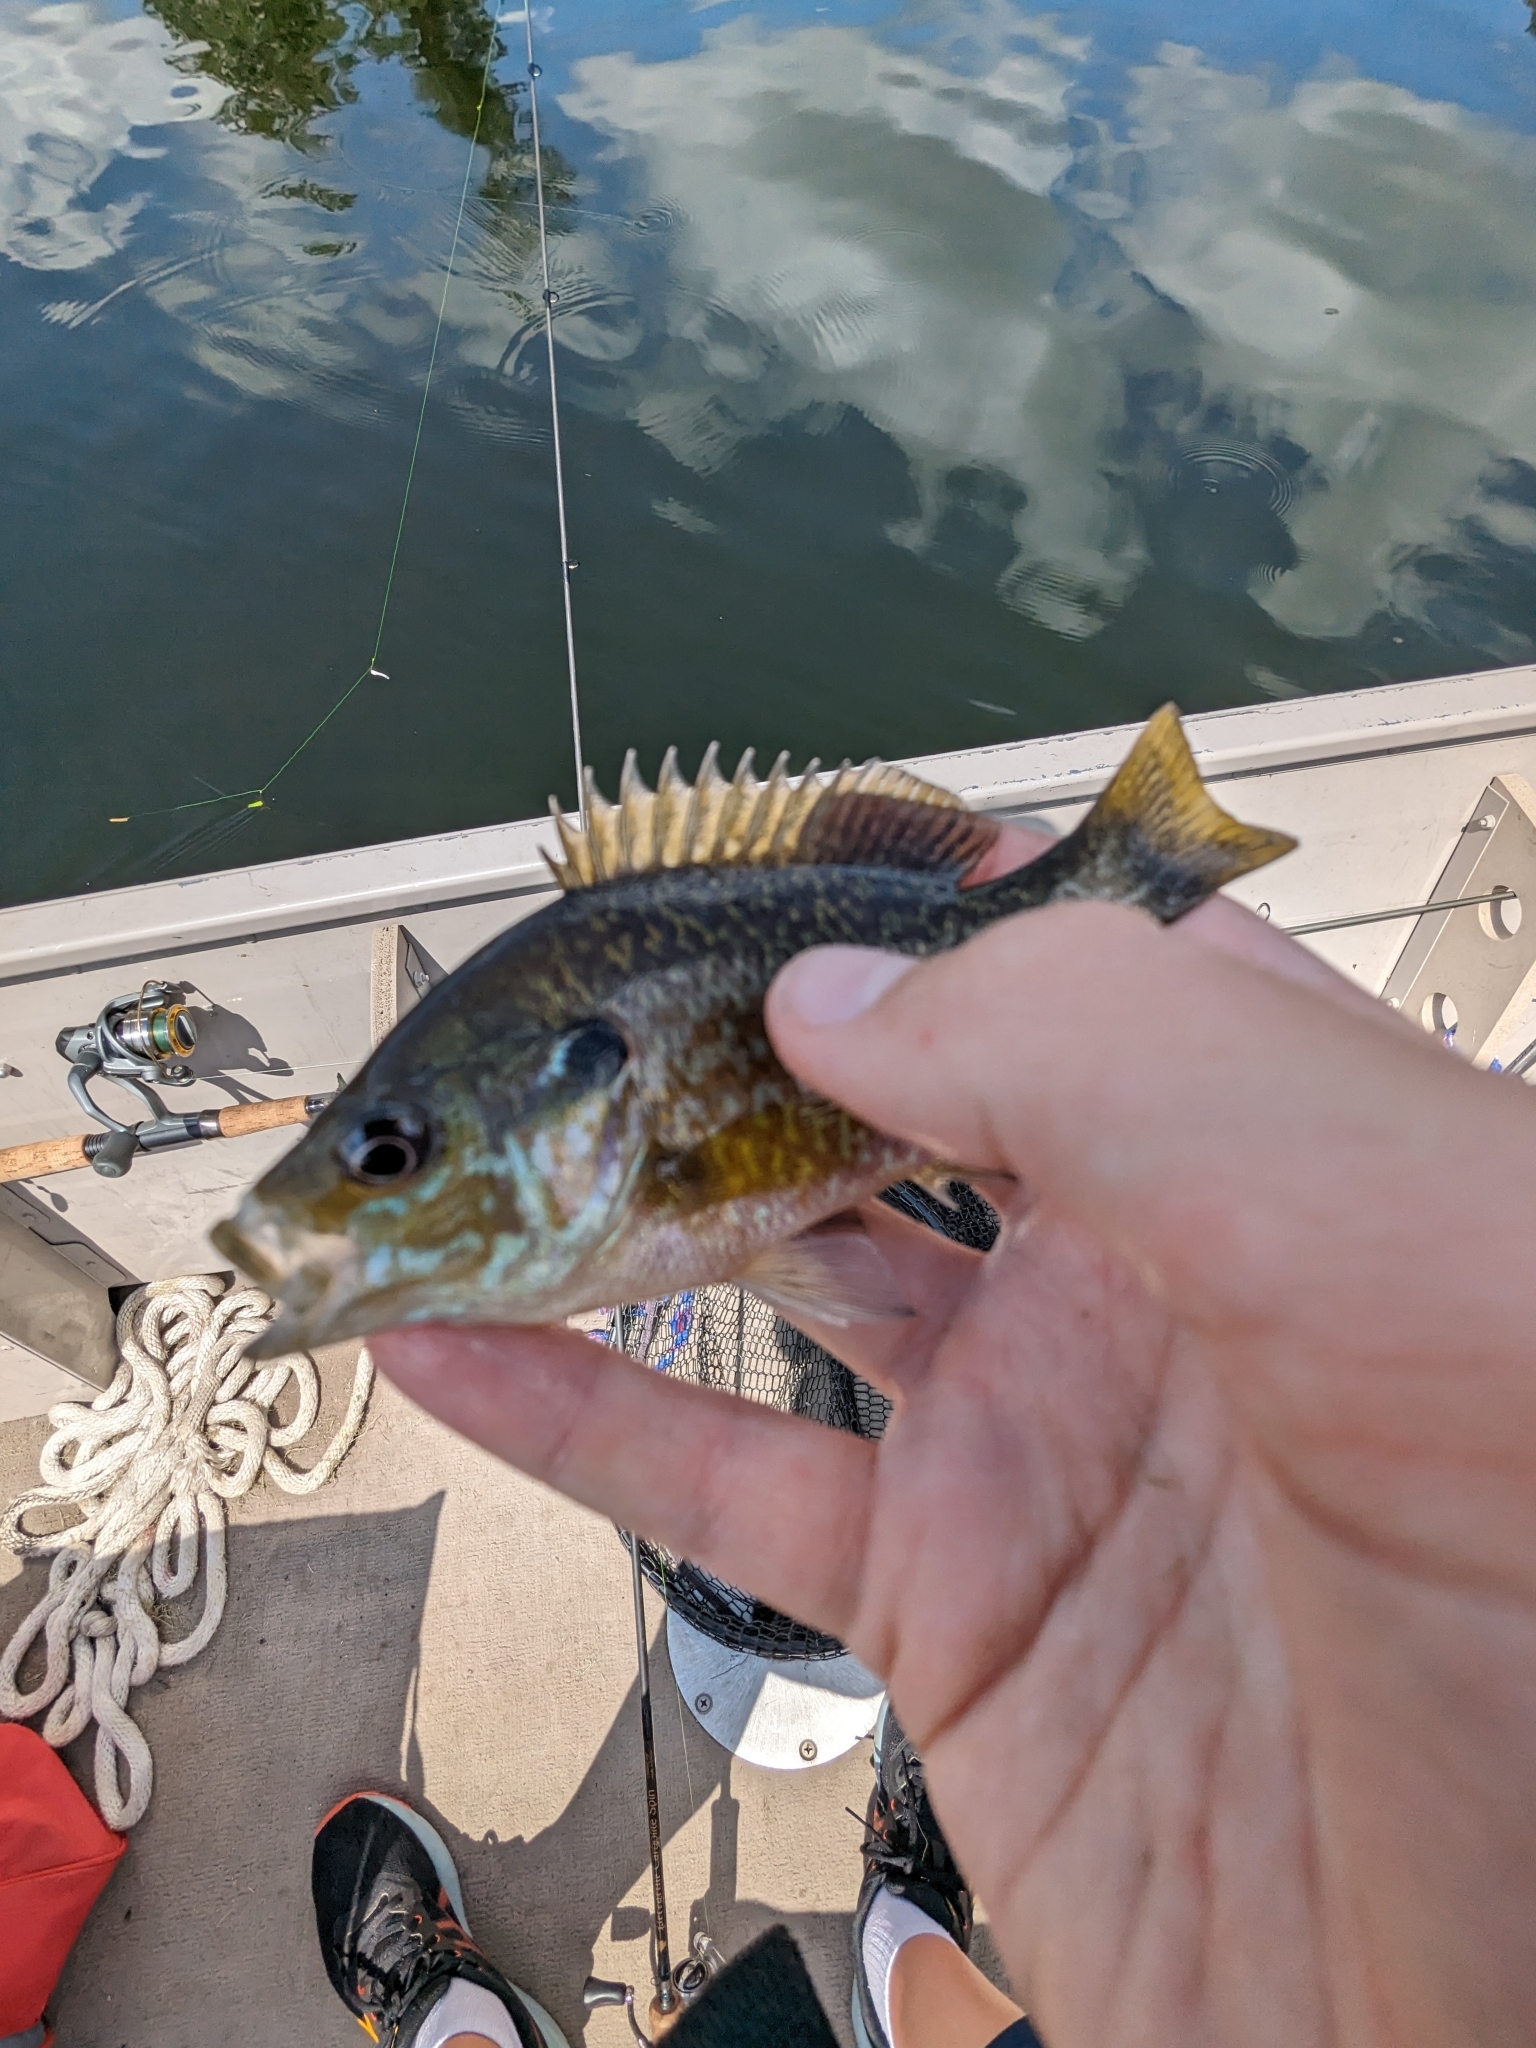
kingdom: Animalia
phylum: Chordata
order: Perciformes
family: Centrarchidae
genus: Lepomis
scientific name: Lepomis
